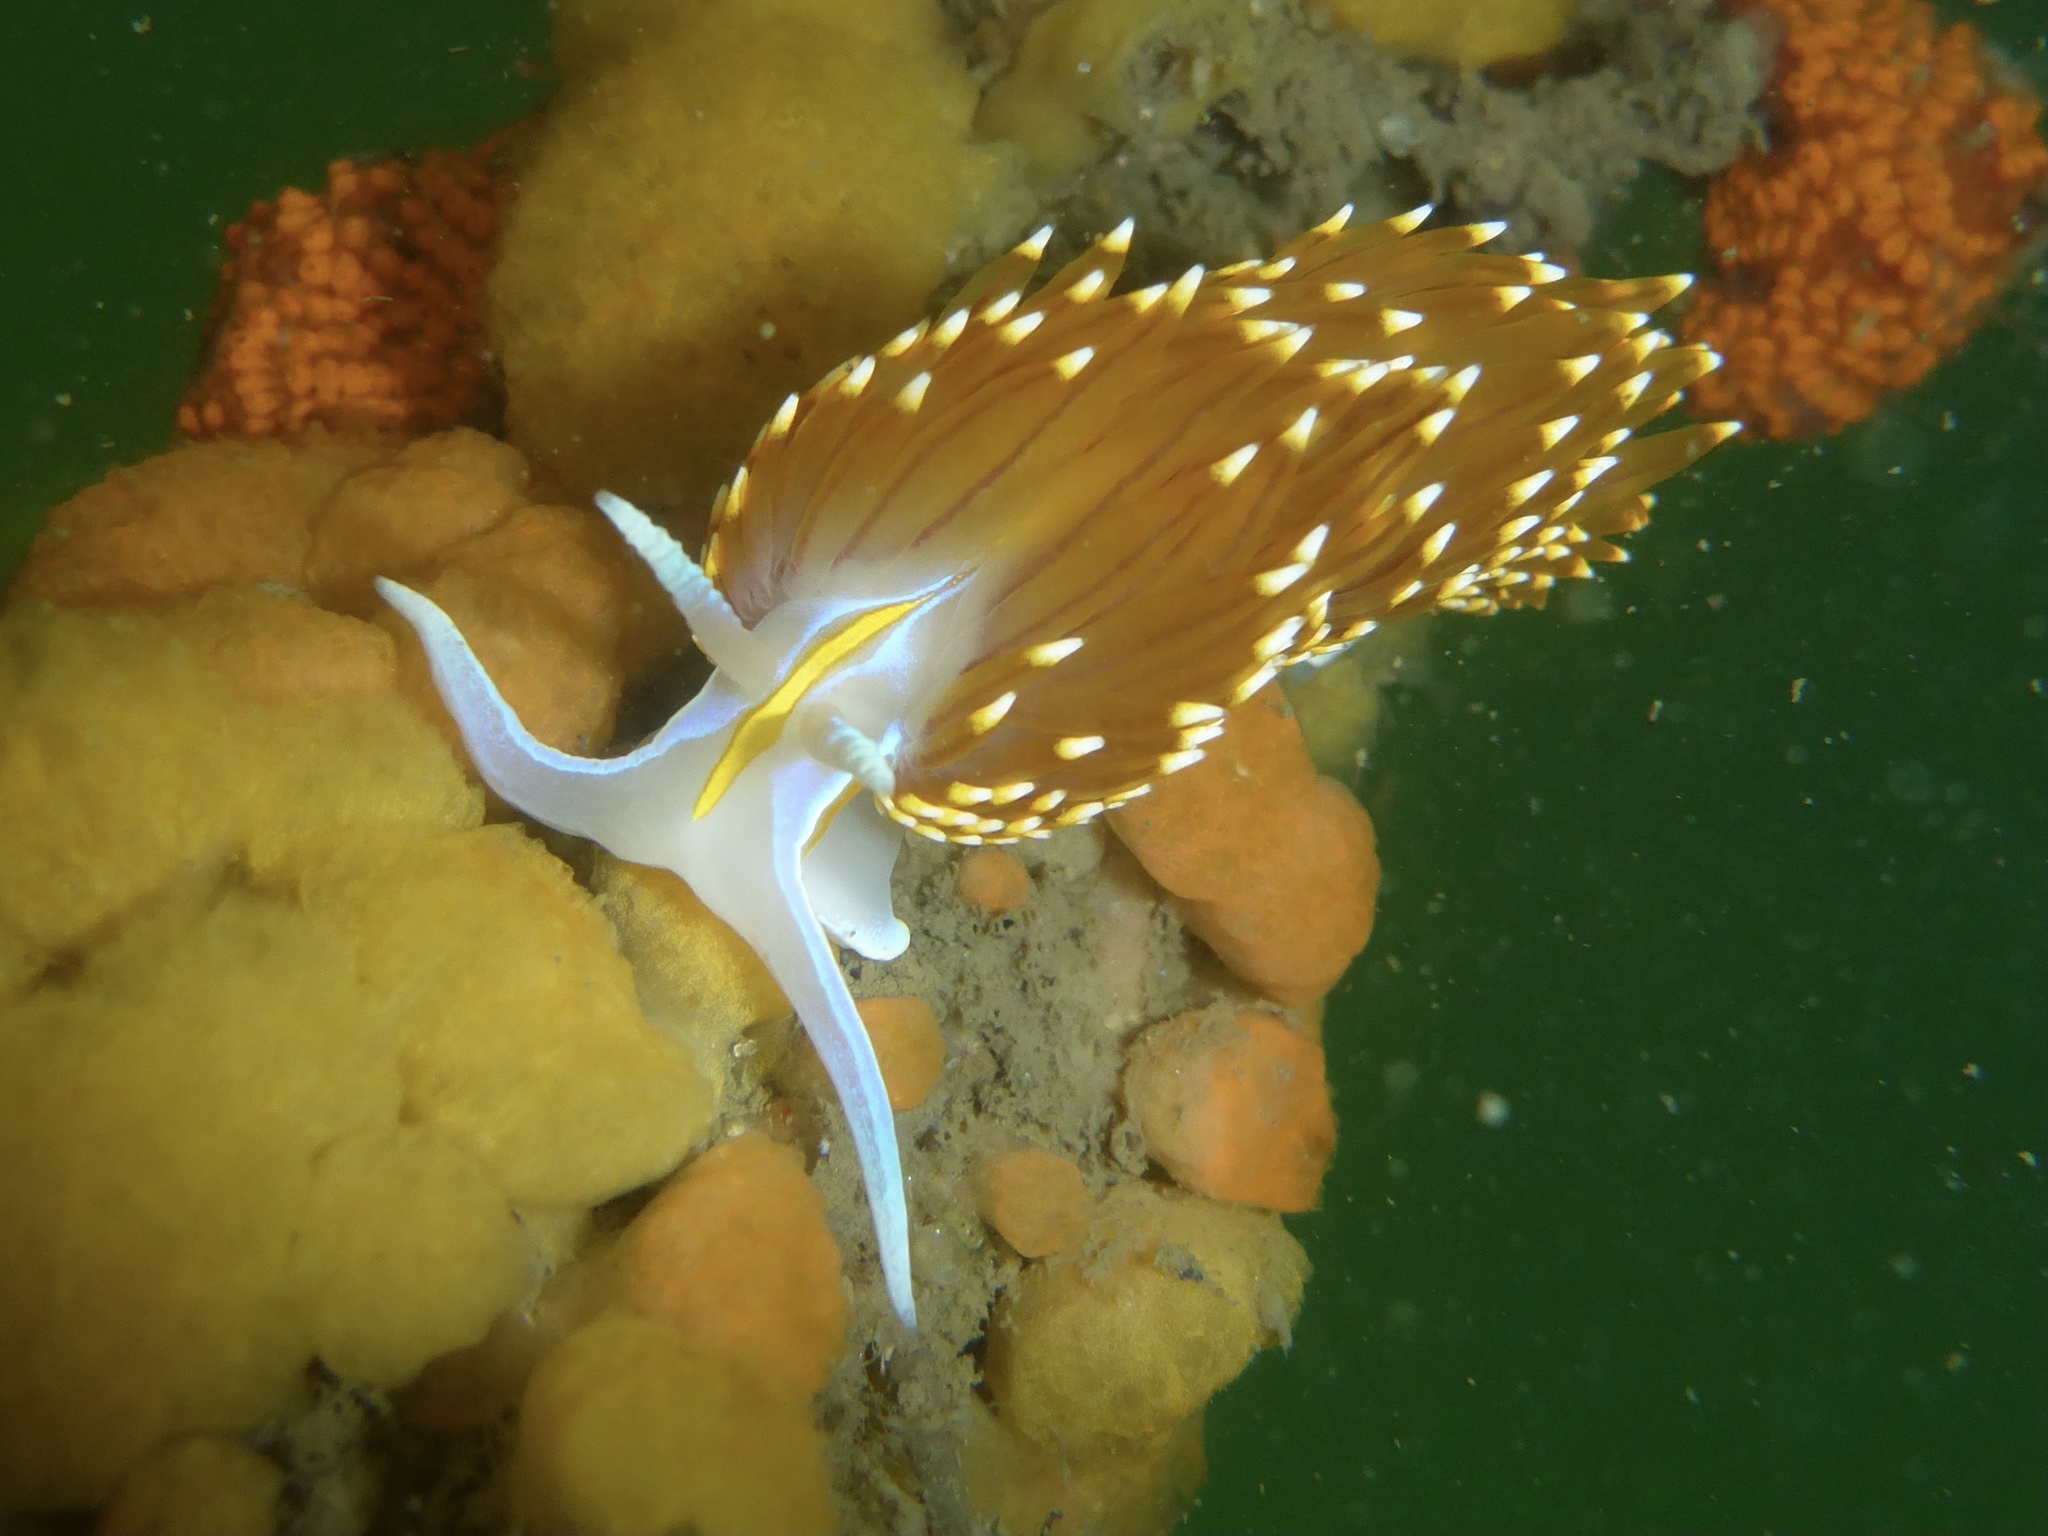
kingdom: Animalia
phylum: Mollusca
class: Gastropoda
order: Nudibranchia
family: Myrrhinidae
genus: Hermissenda
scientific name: Hermissenda opalescens
